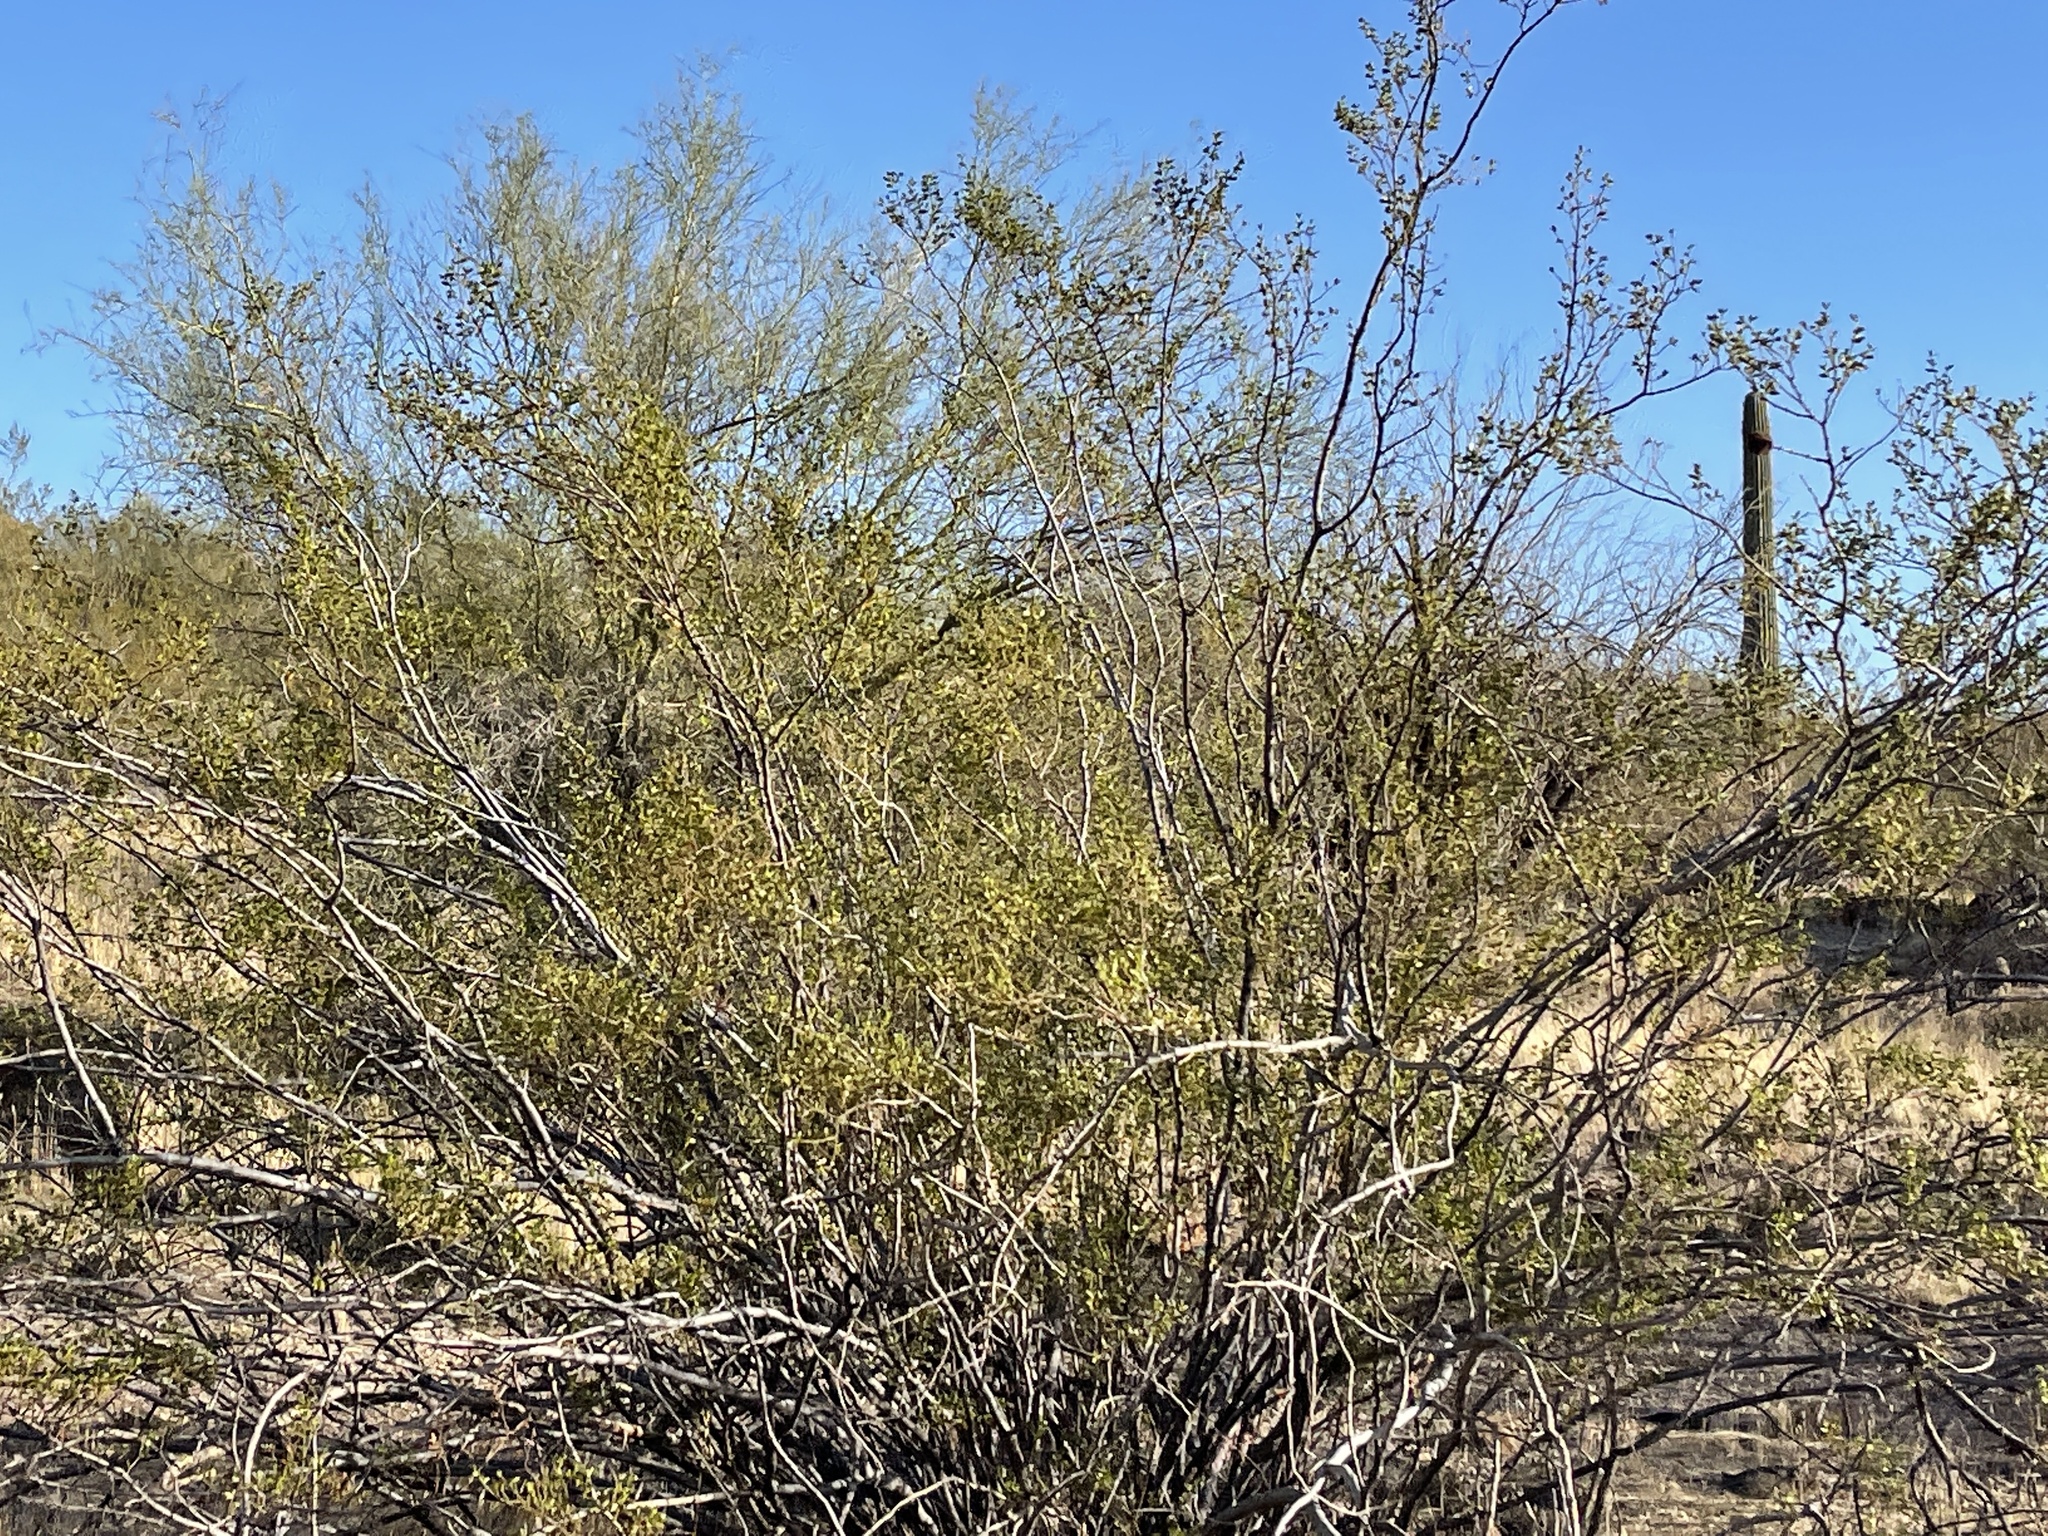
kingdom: Plantae
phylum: Tracheophyta
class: Magnoliopsida
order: Zygophyllales
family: Zygophyllaceae
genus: Larrea
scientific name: Larrea tridentata
